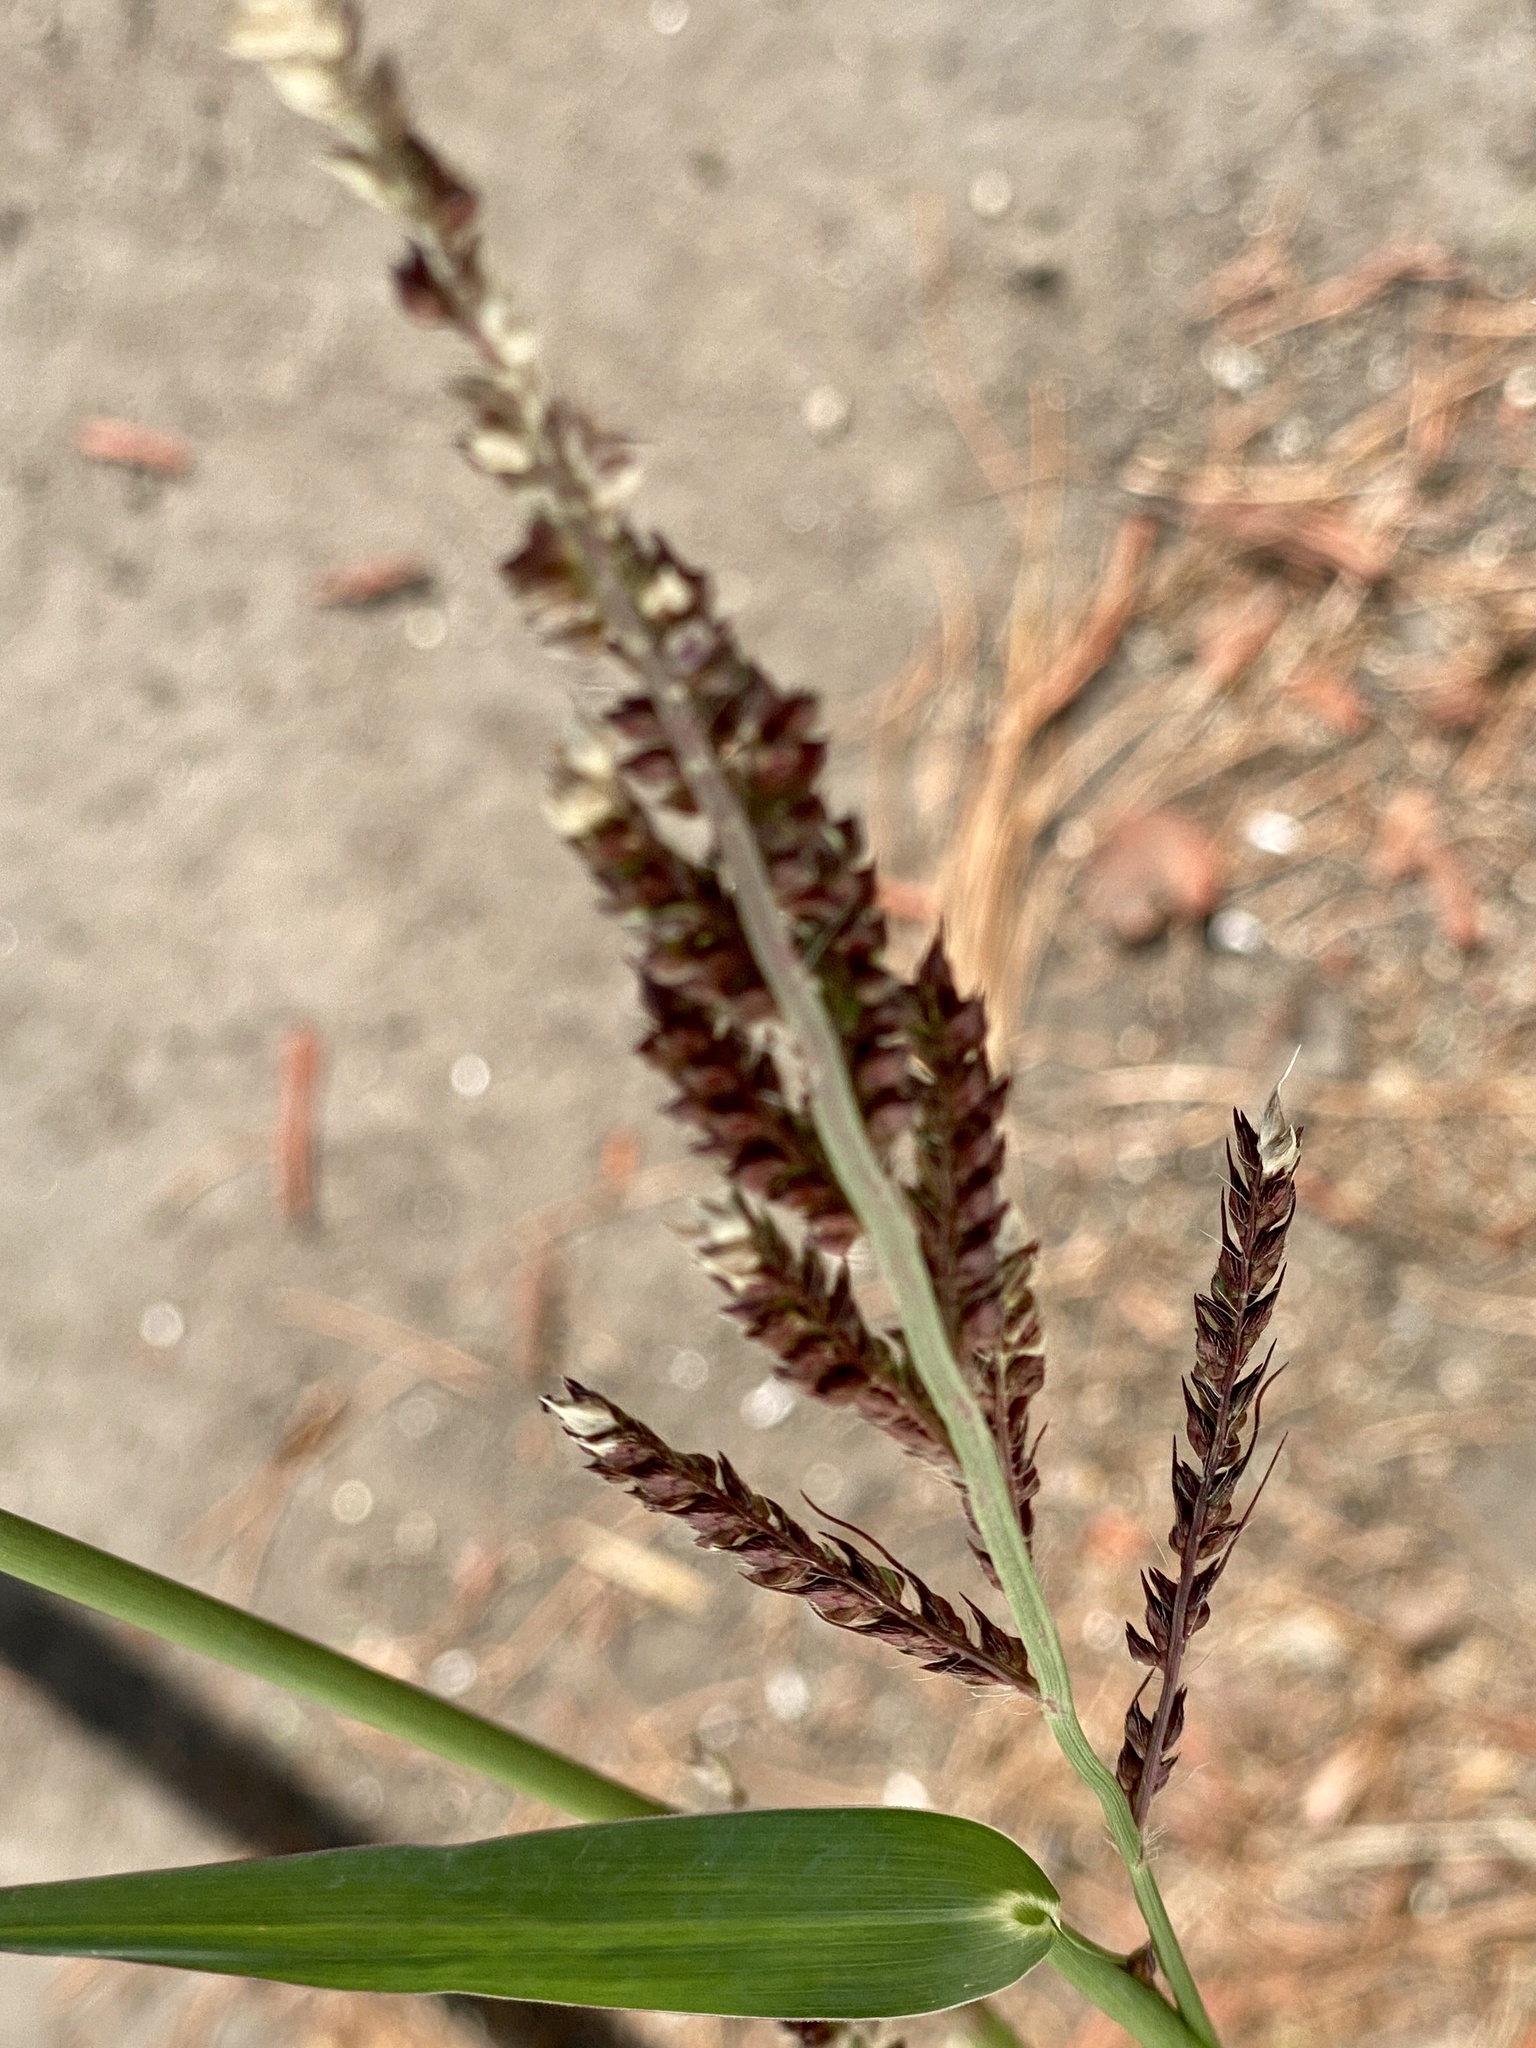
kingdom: Plantae
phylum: Tracheophyta
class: Liliopsida
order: Poales
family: Poaceae
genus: Echinochloa
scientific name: Echinochloa crus-galli
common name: Cockspur
